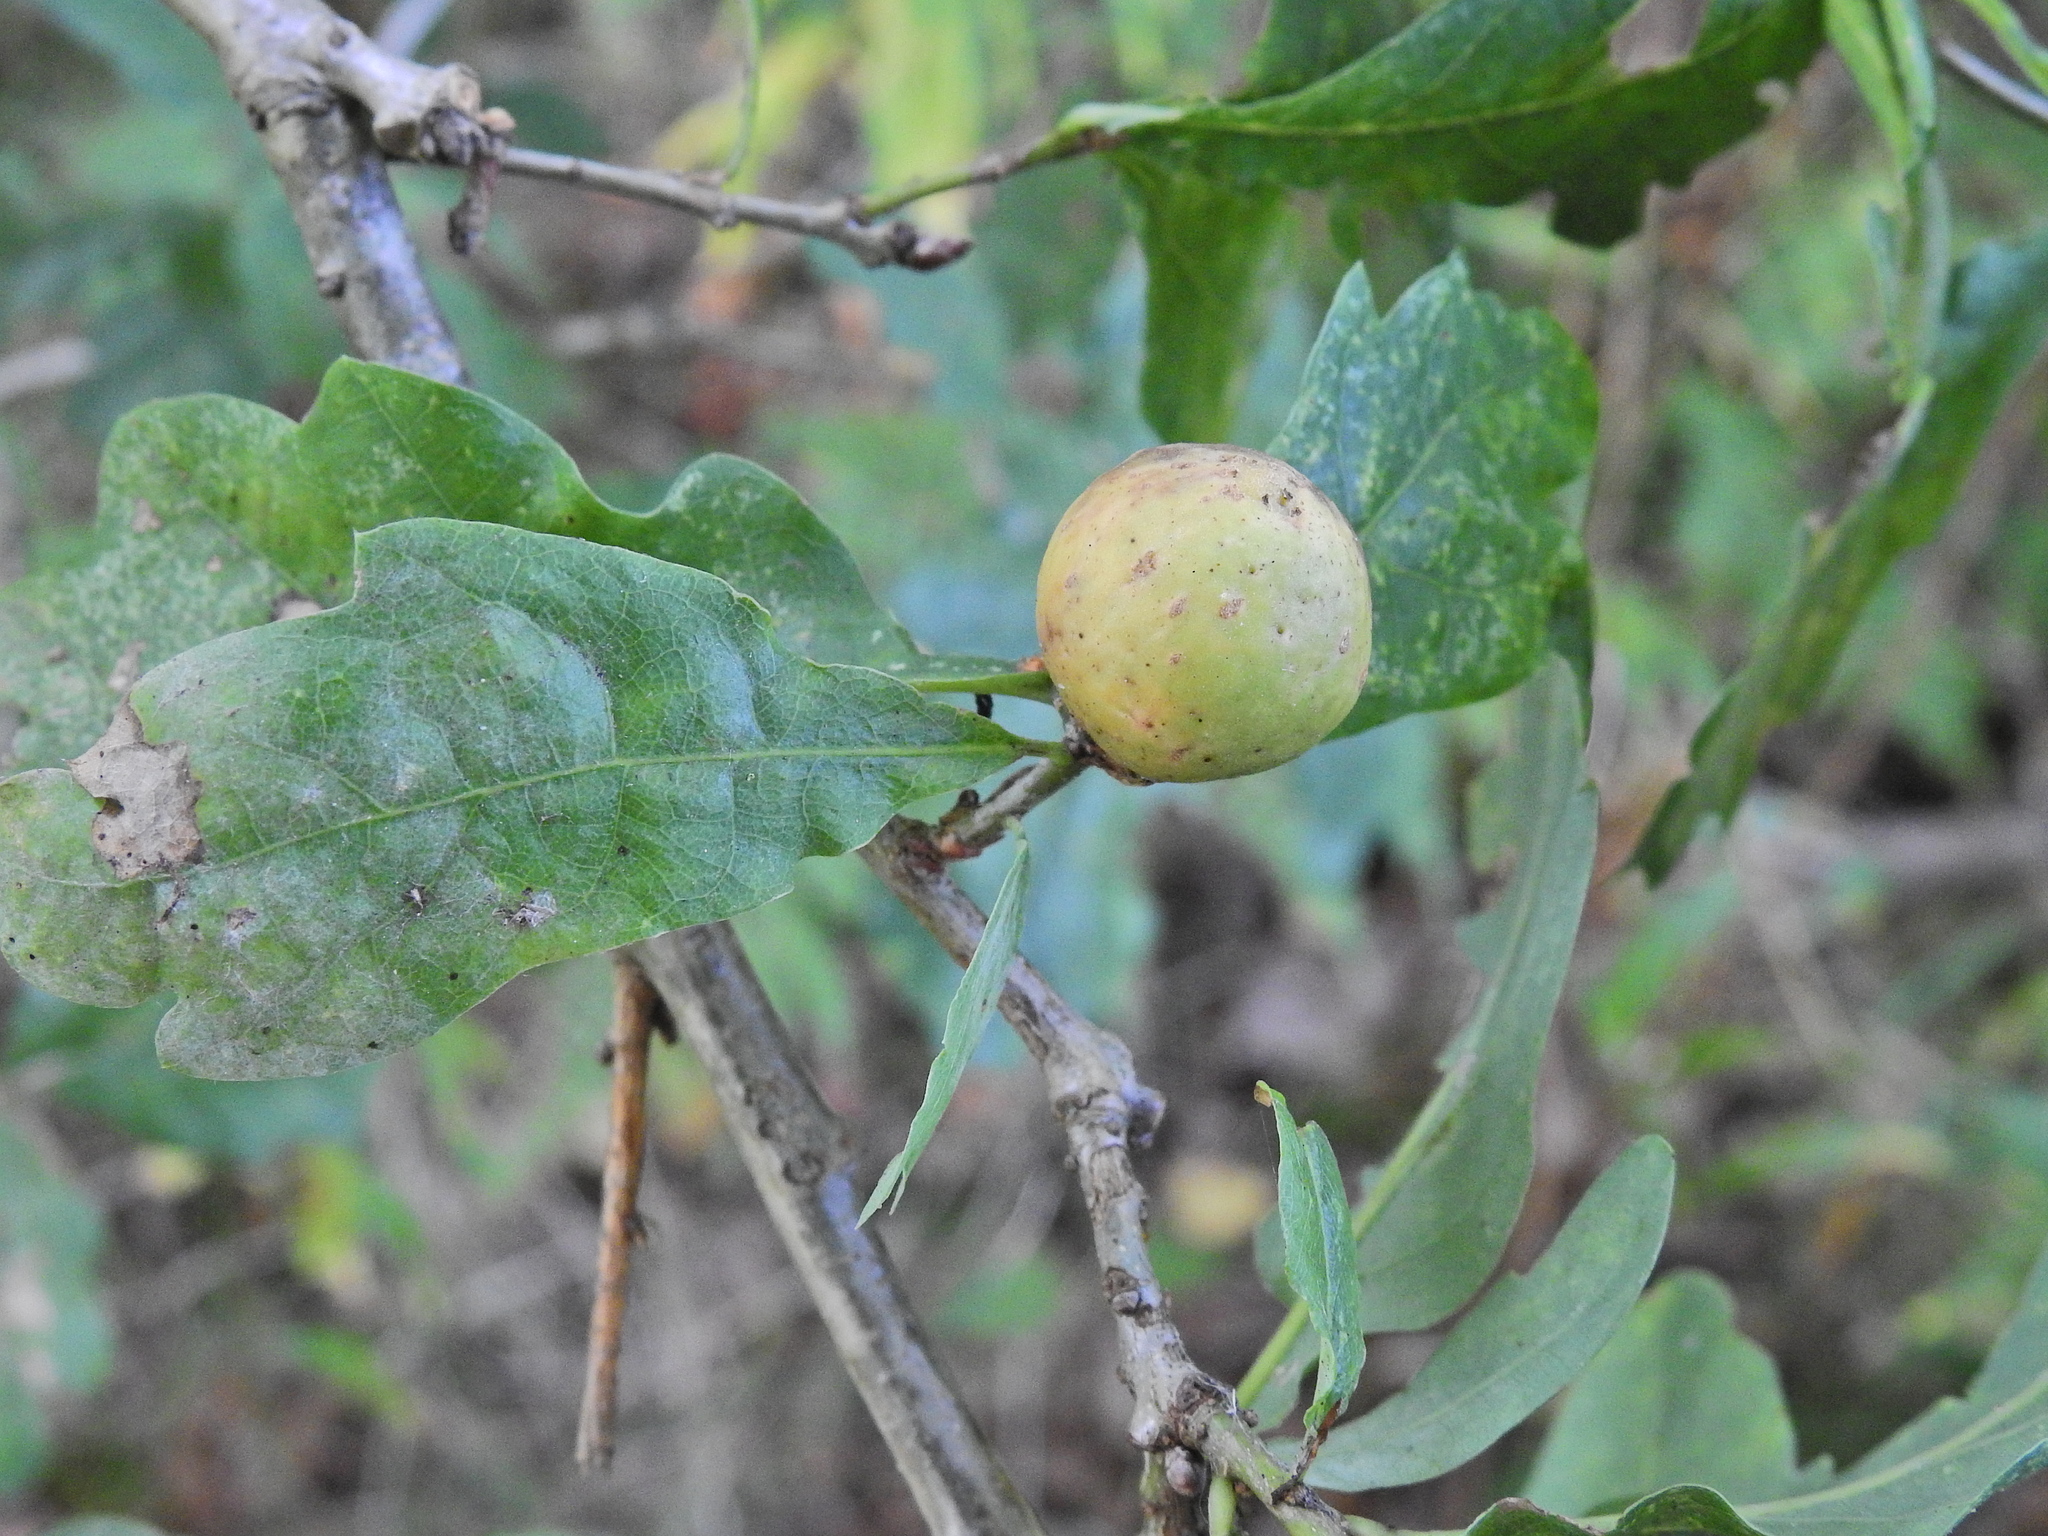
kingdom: Animalia
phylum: Arthropoda
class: Insecta
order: Hymenoptera
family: Cynipidae
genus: Andricus
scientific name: Andricus kollari
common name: Marble gall
